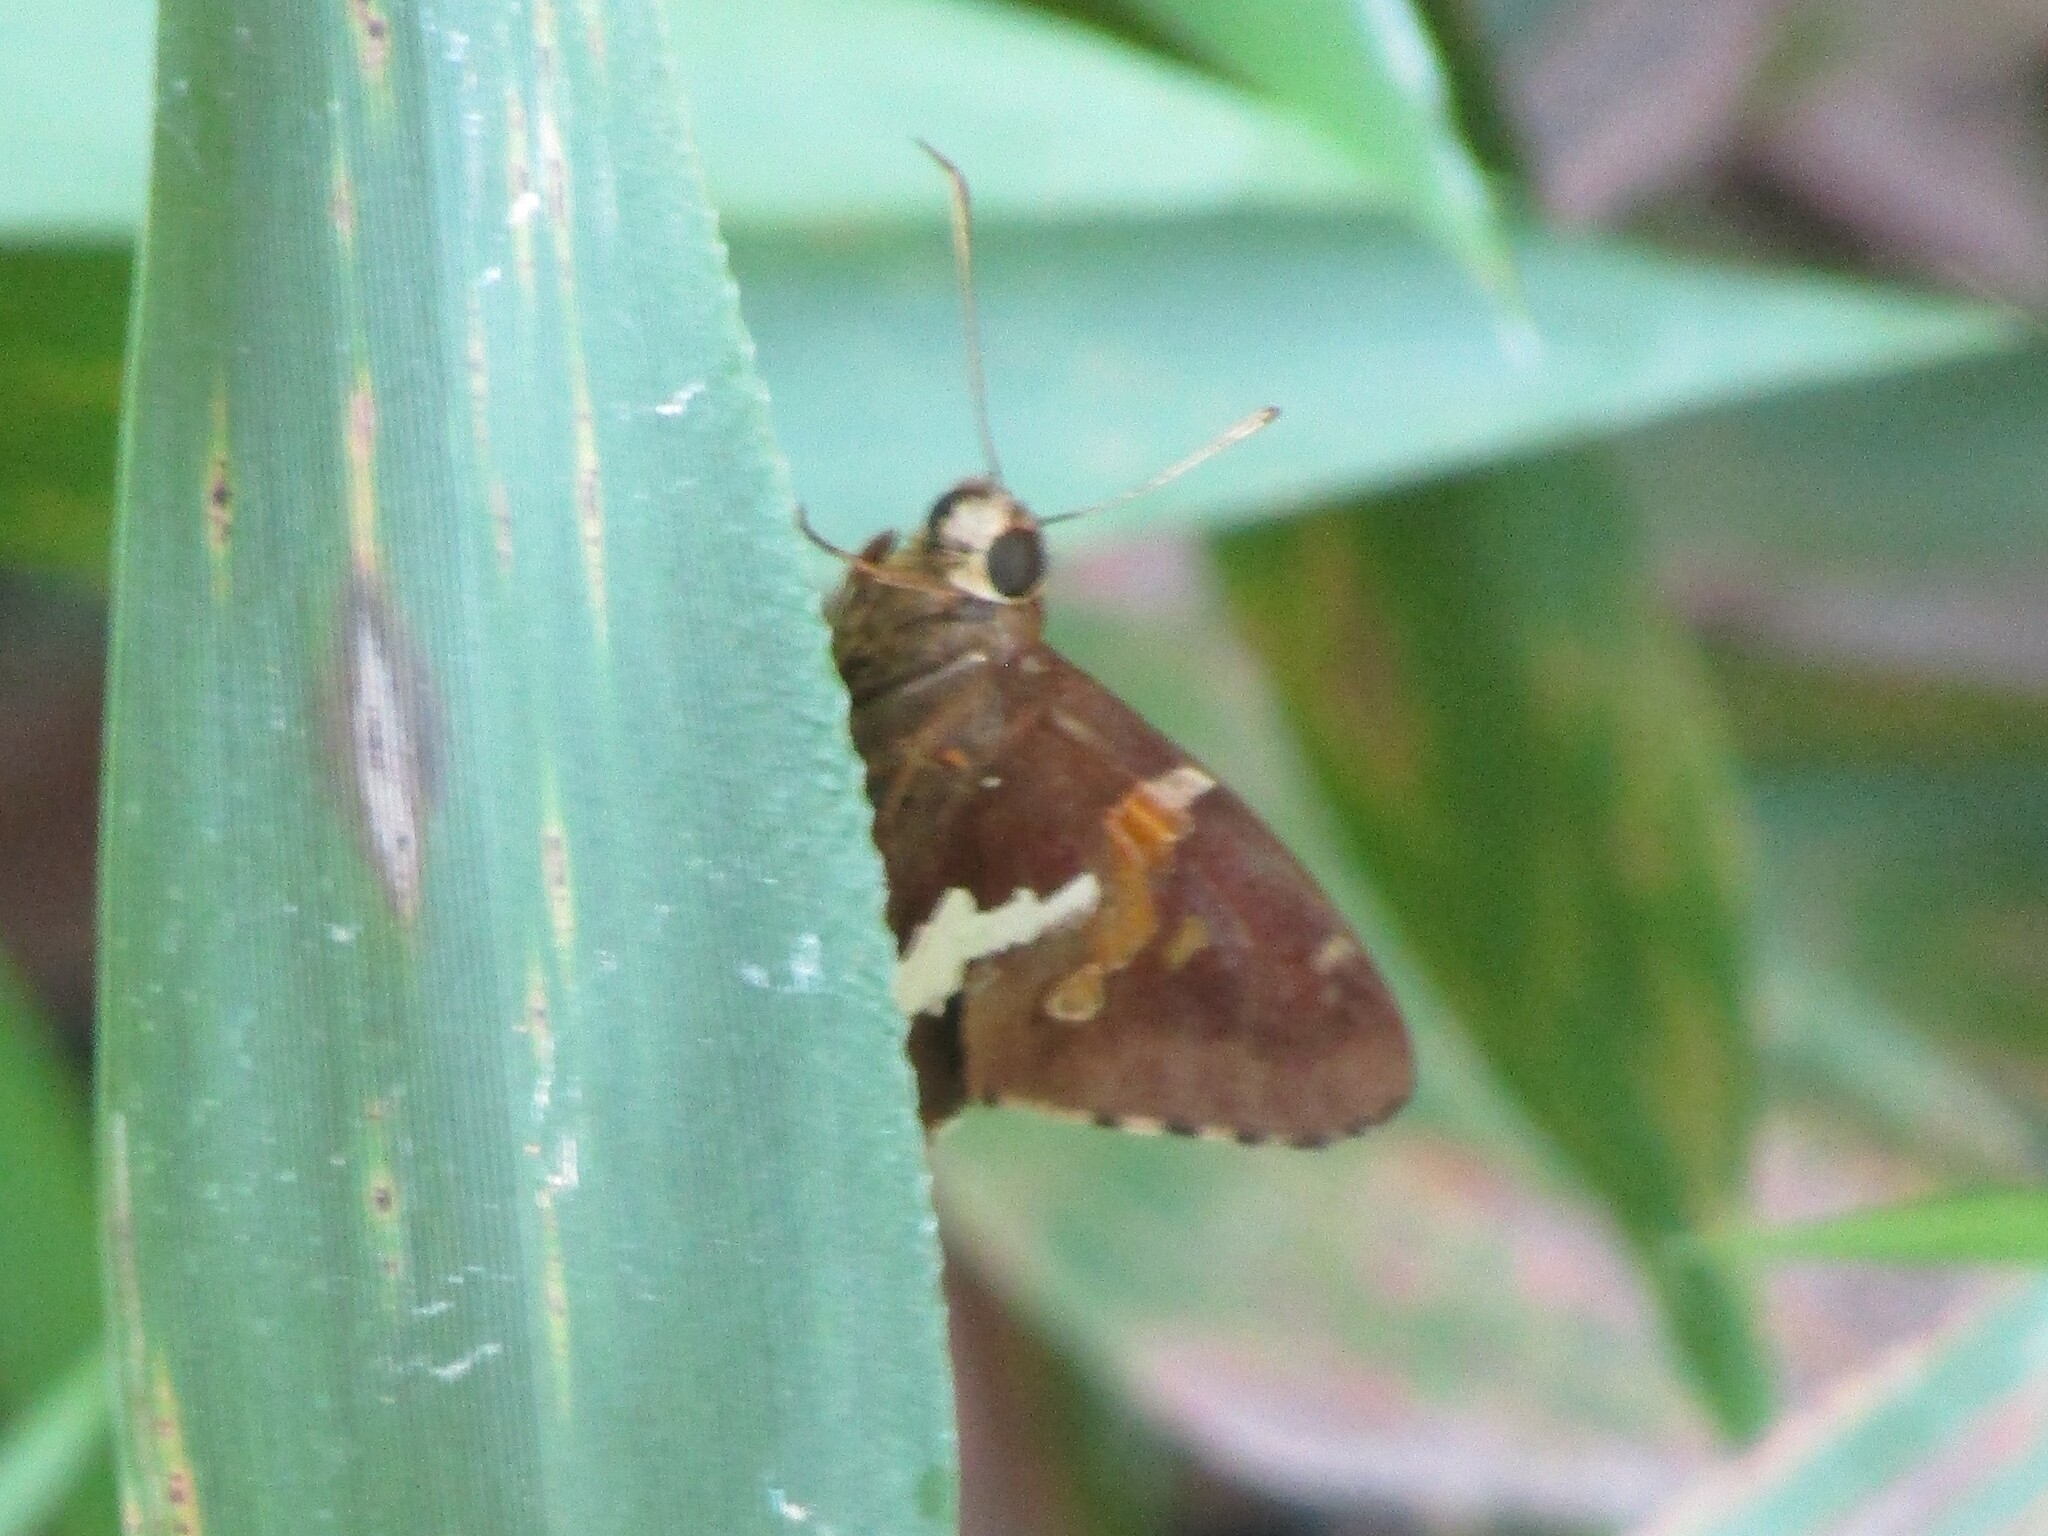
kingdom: Animalia
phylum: Arthropoda
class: Insecta
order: Lepidoptera
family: Hesperiidae
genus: Epargyreus
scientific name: Epargyreus clarus
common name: Silver-spotted skipper
